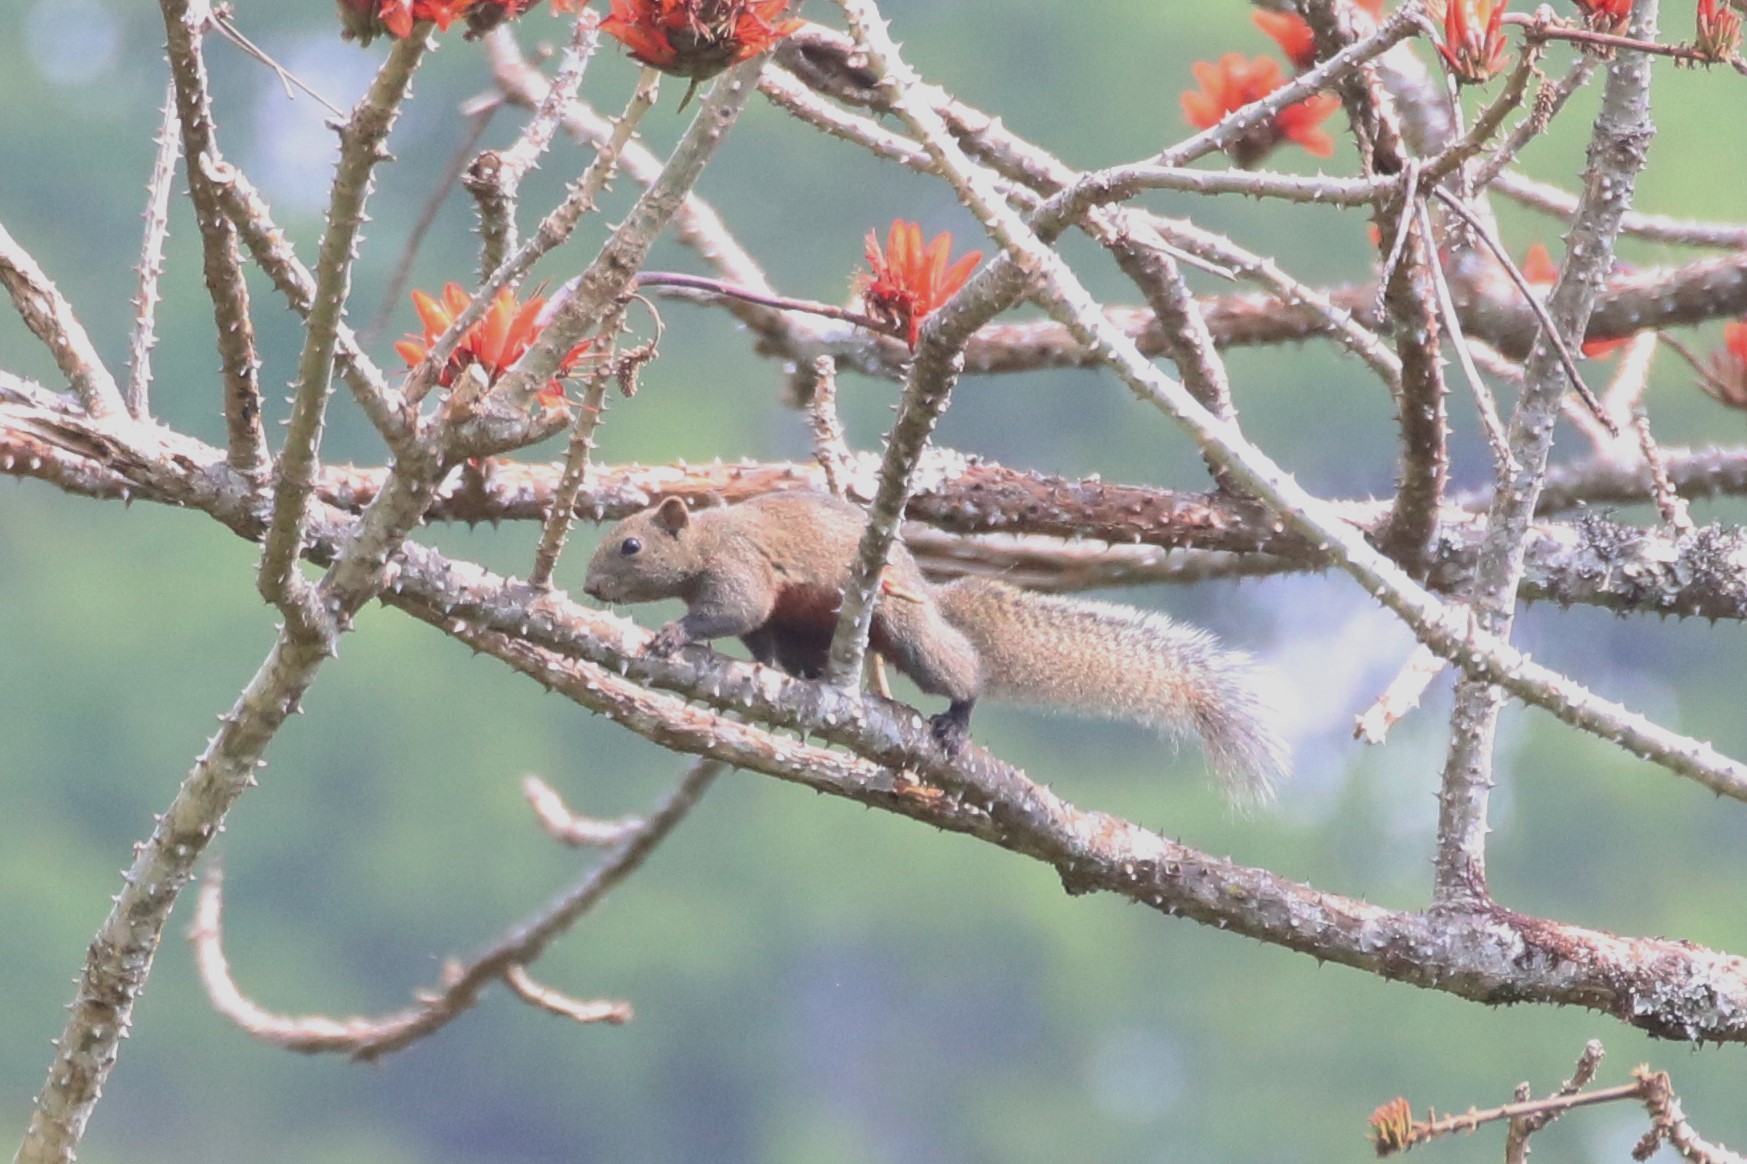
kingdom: Animalia
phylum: Chordata
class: Mammalia
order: Rodentia
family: Sciuridae
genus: Callosciurus
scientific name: Callosciurus erythraeus
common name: Pallas's squirrel
